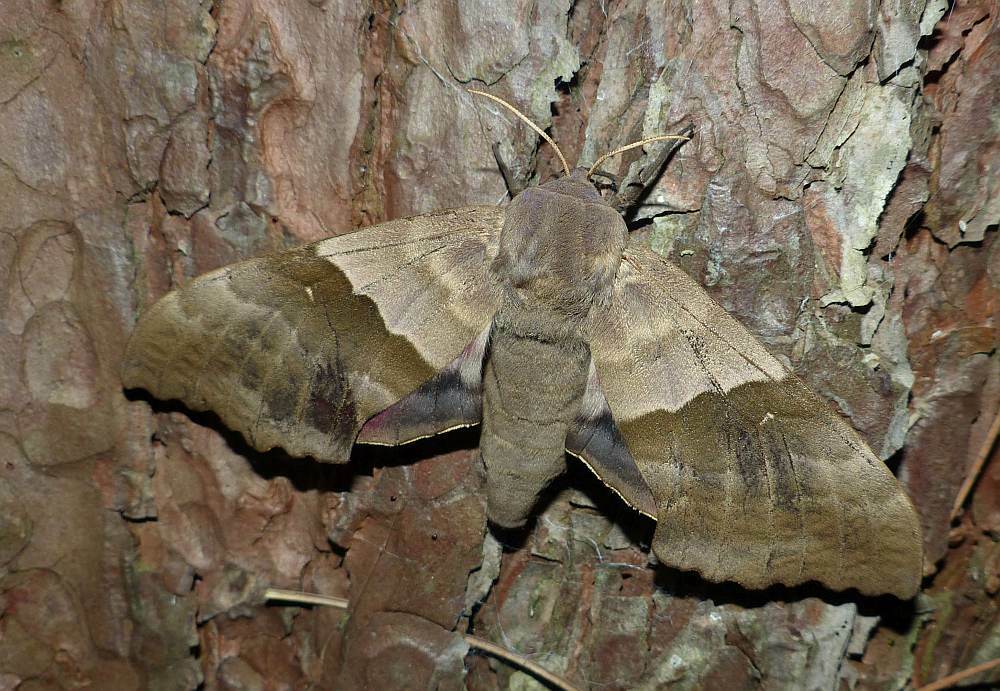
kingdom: Animalia
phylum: Arthropoda
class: Insecta
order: Lepidoptera
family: Sphingidae
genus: Pachysphinx
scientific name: Pachysphinx modesta
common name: Big poplar sphinx
